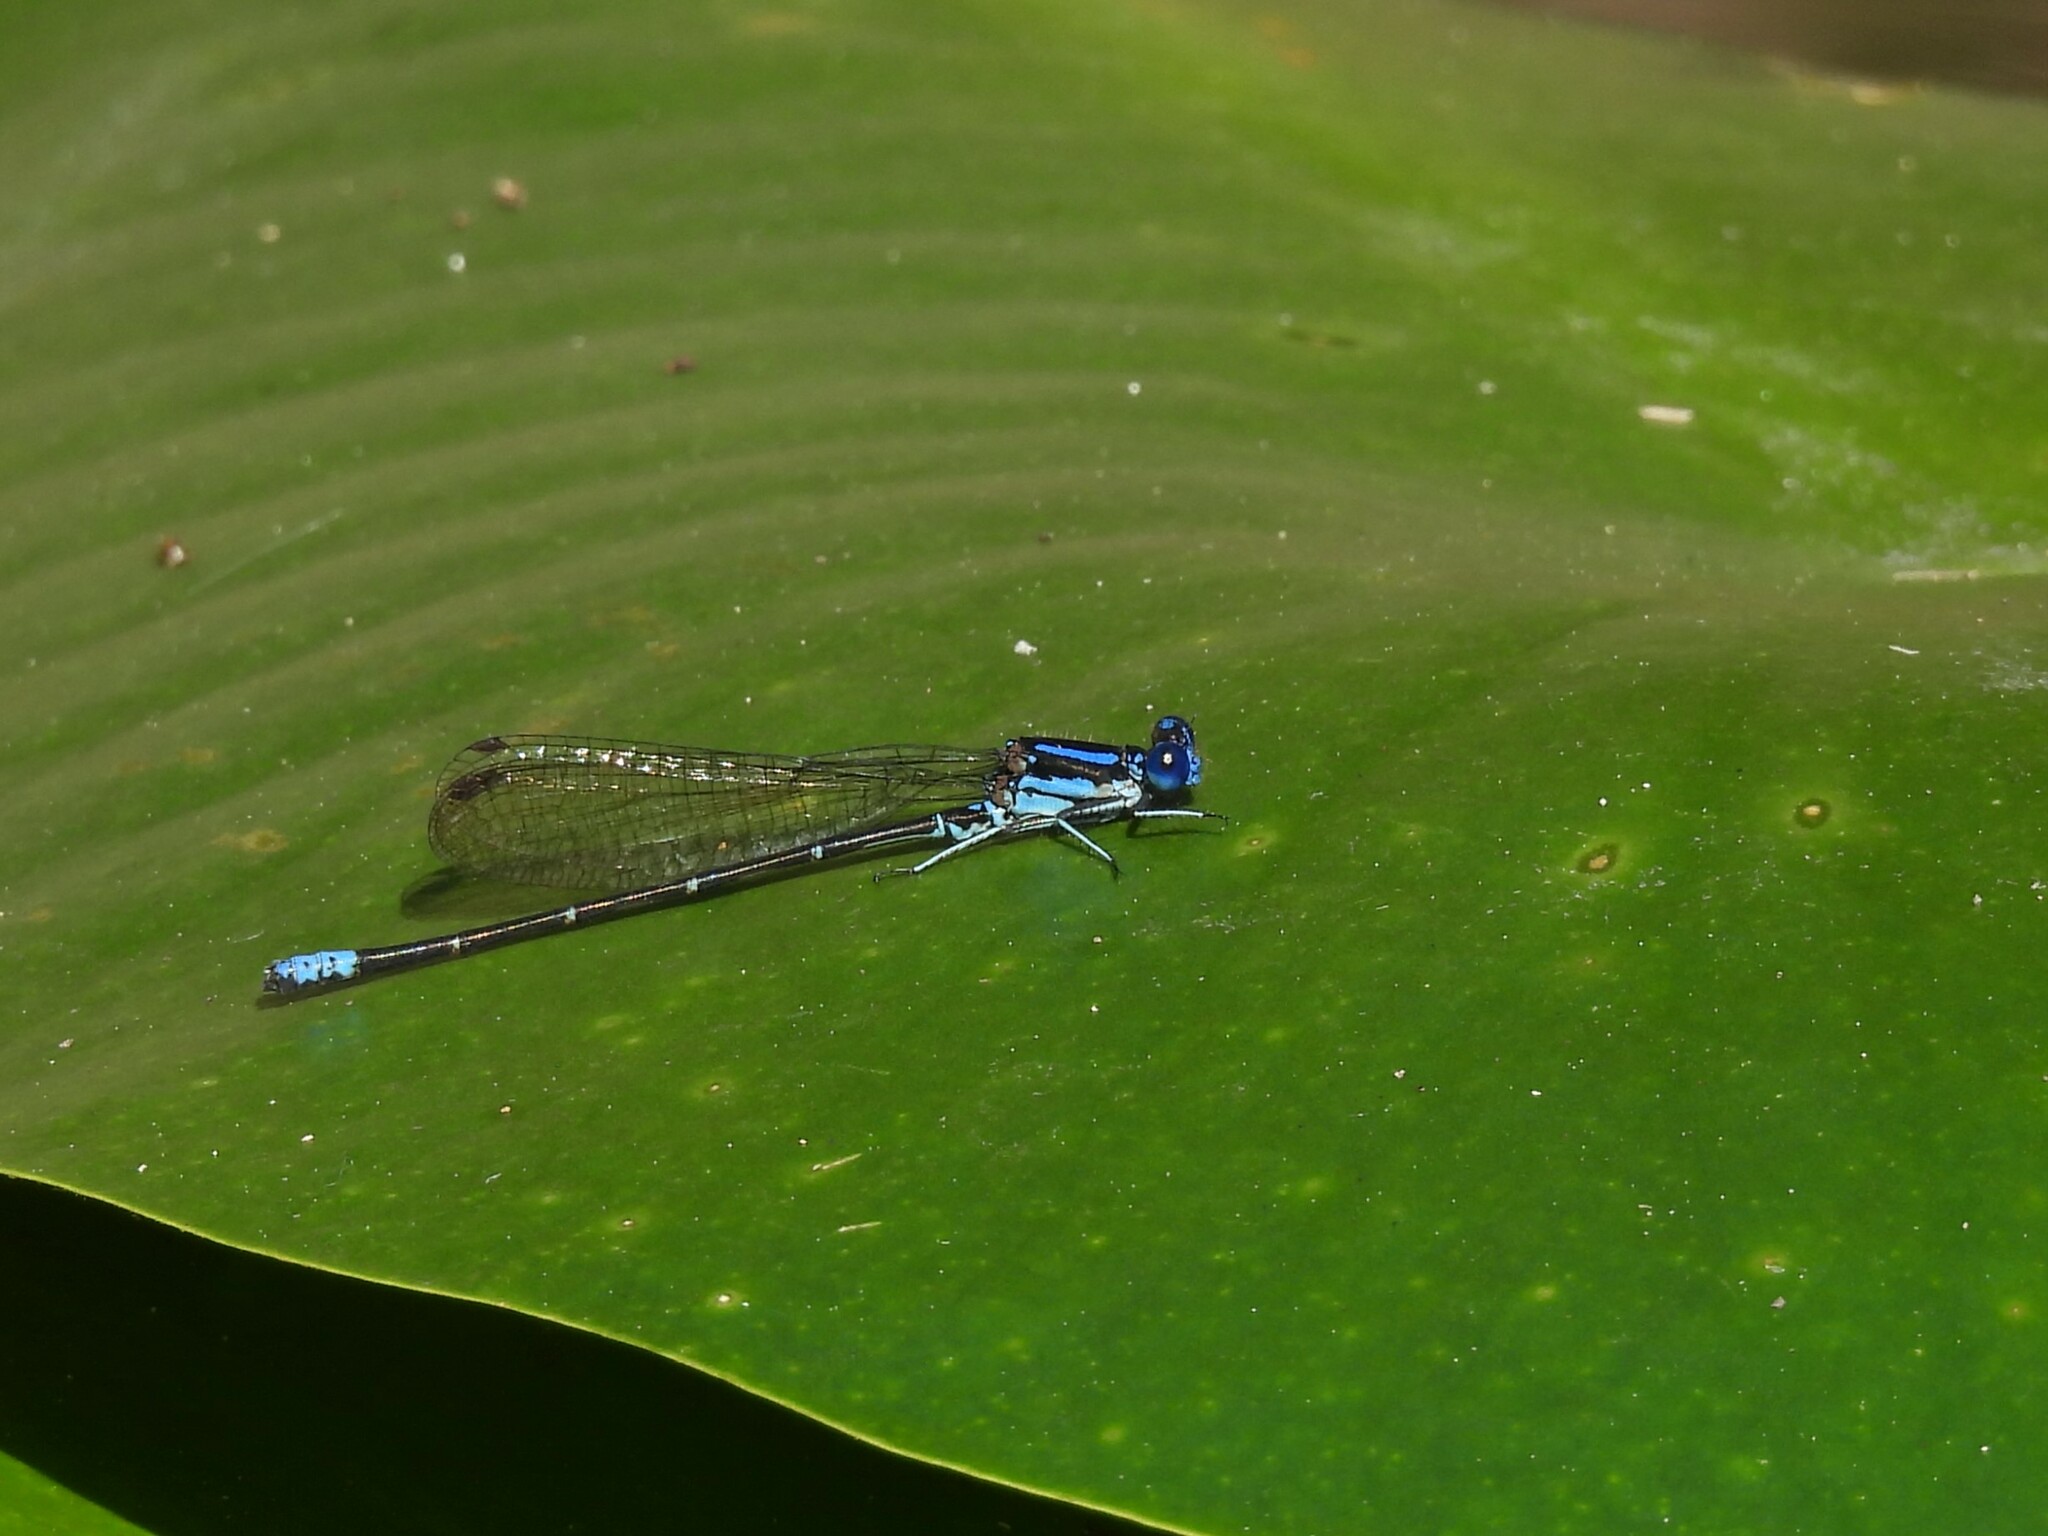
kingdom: Animalia
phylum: Arthropoda
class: Insecta
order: Odonata
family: Coenagrionidae
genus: Argia
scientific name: Argia sedula
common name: Blue-ringed dancer
